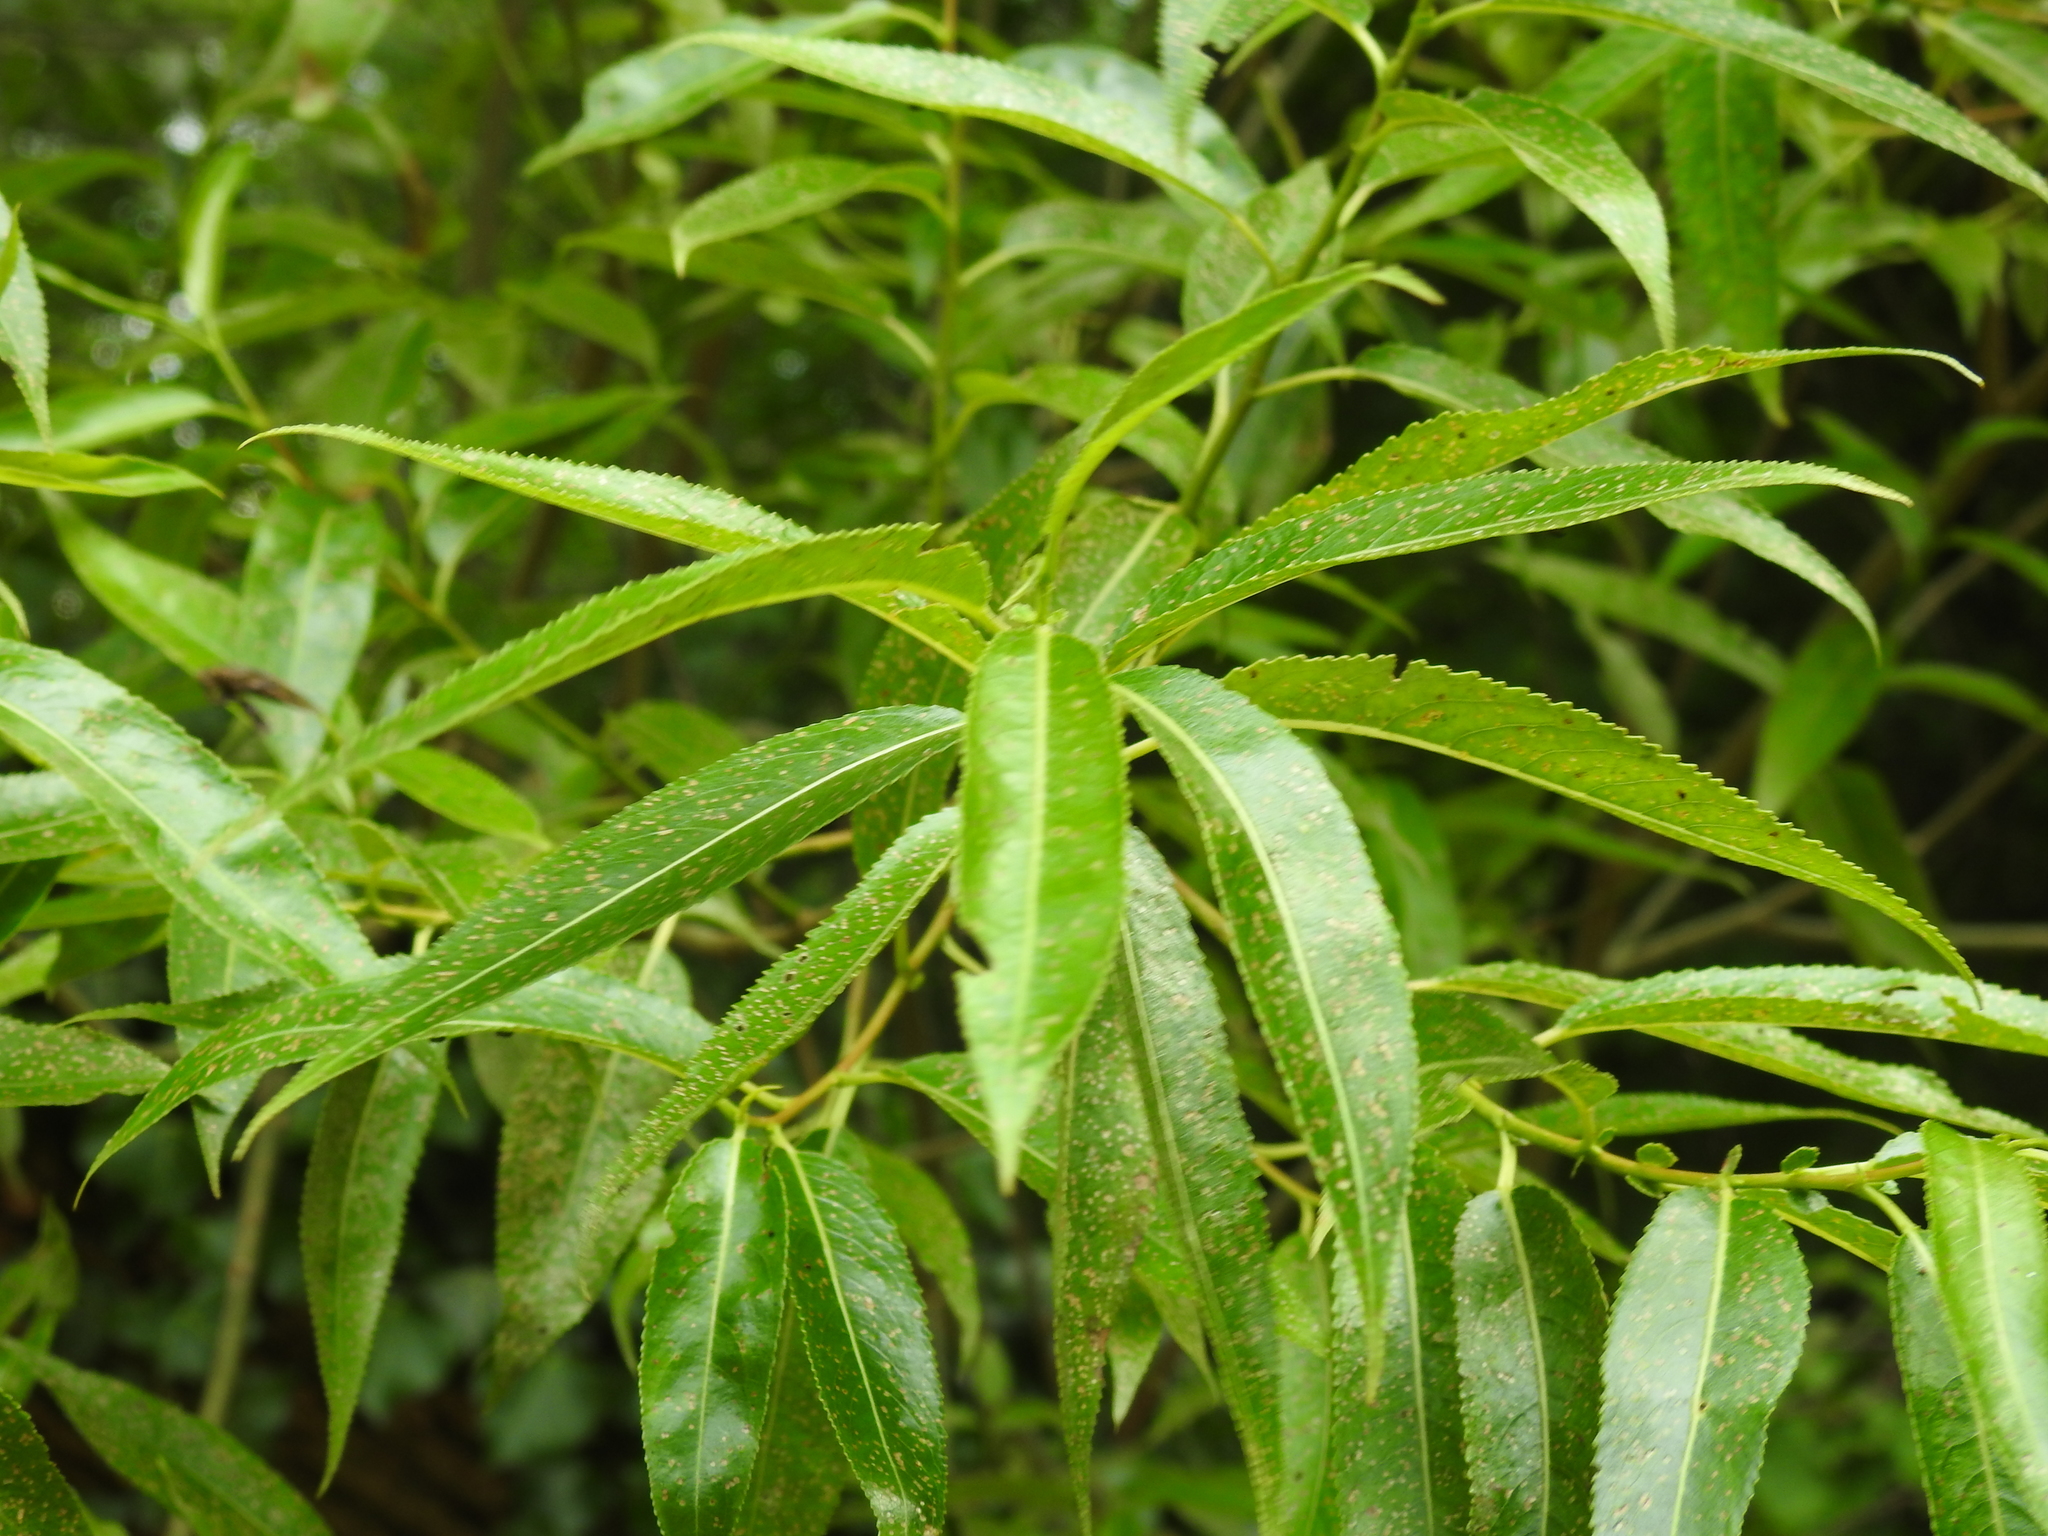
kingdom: Plantae
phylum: Tracheophyta
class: Magnoliopsida
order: Malpighiales
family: Salicaceae
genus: Salix
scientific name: Salix alba
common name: White willow
